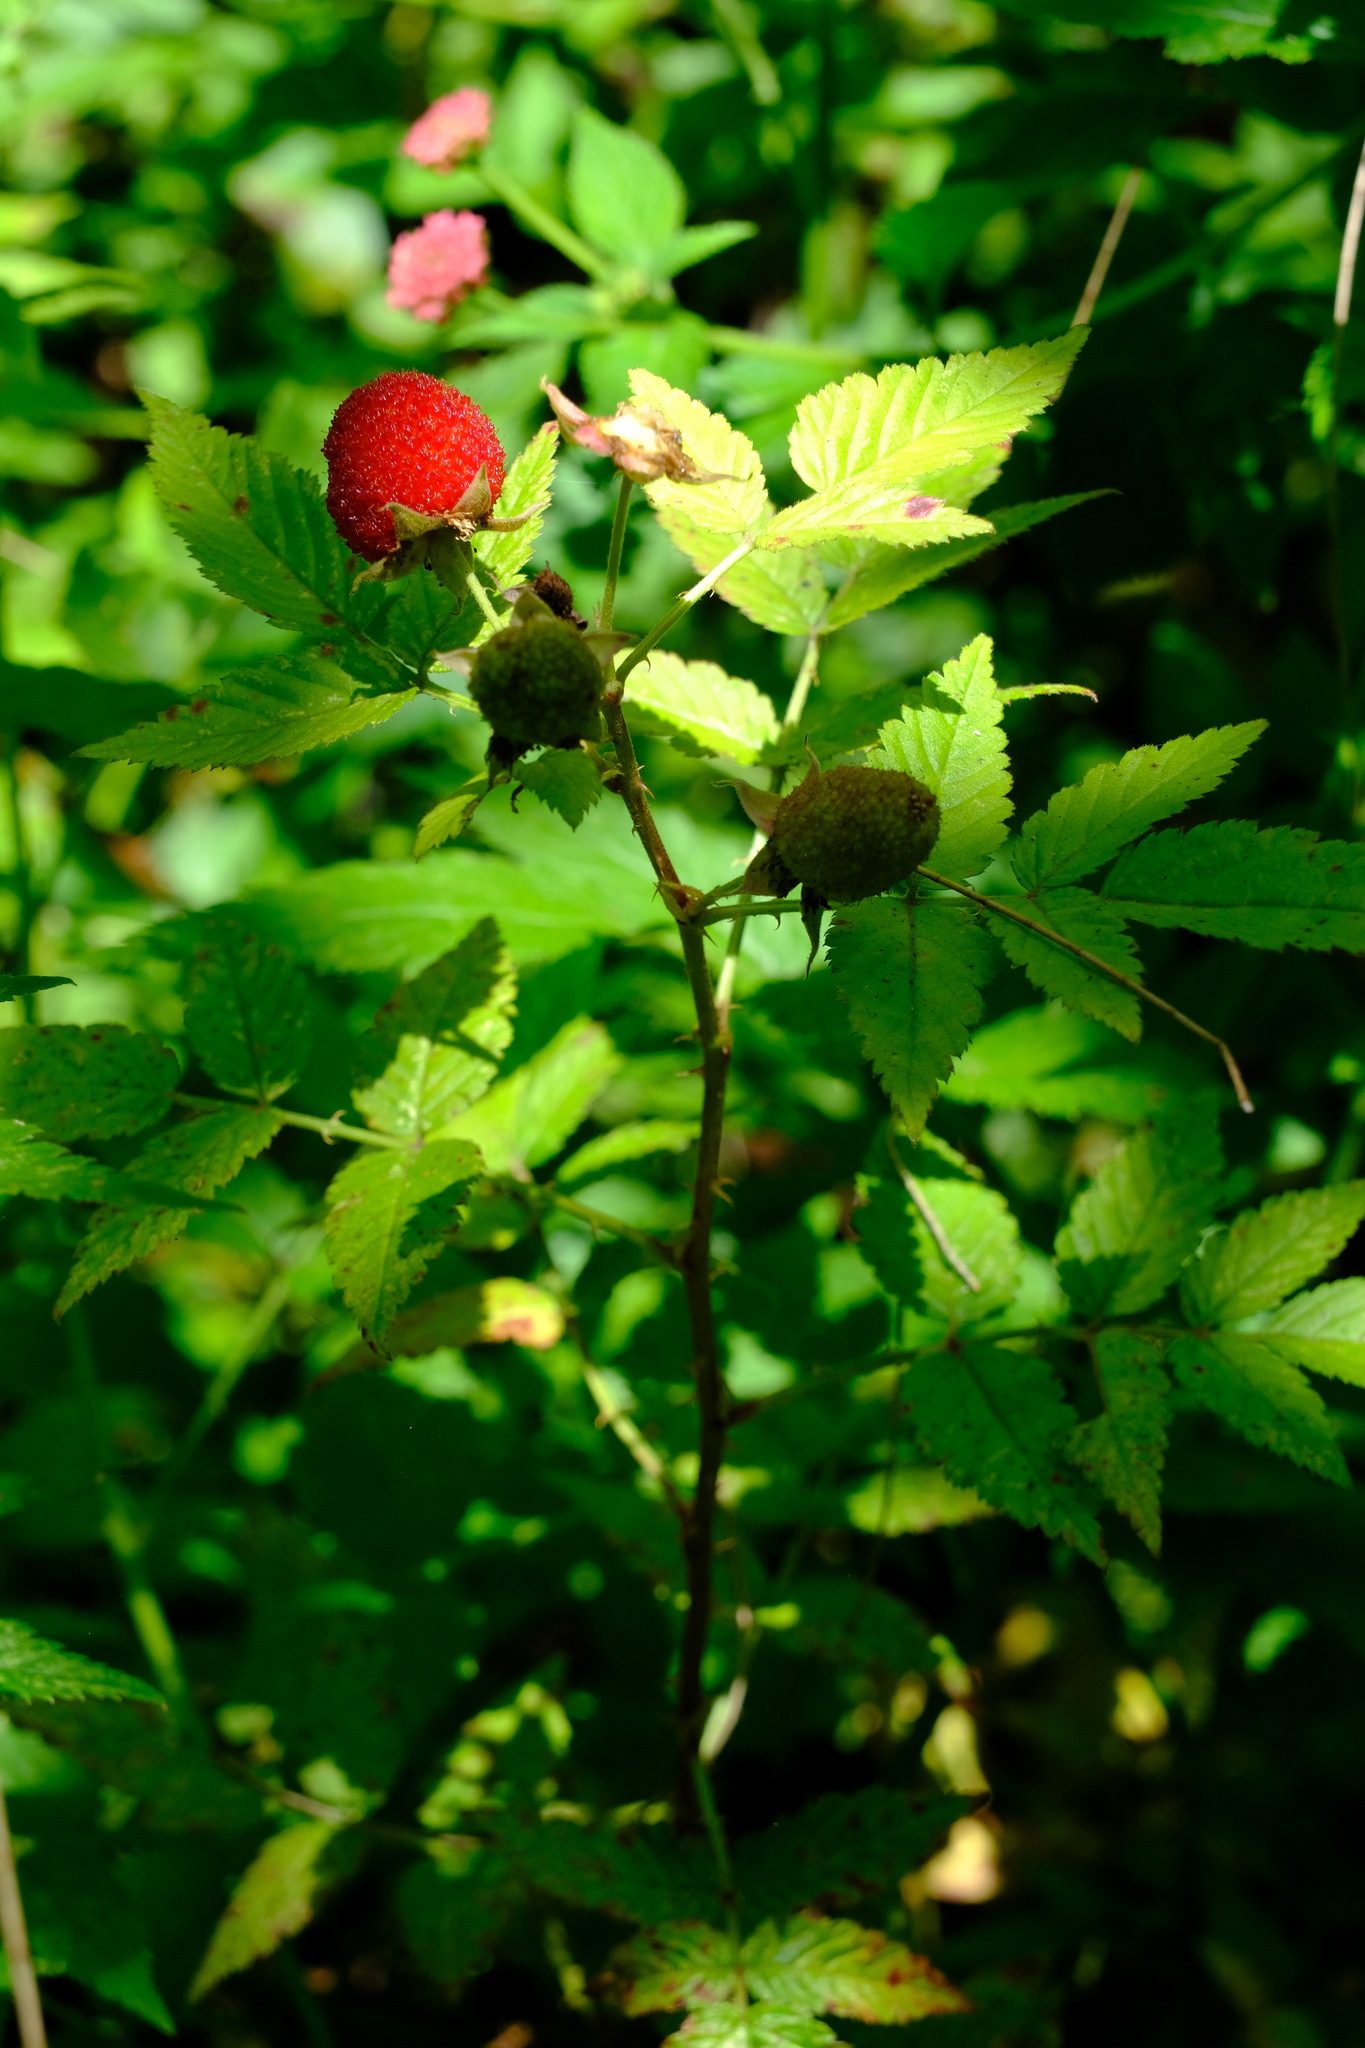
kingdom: Plantae
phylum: Tracheophyta
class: Magnoliopsida
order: Rosales
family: Rosaceae
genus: Rubus
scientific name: Rubus rosifolius
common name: Roseleaf raspberry
